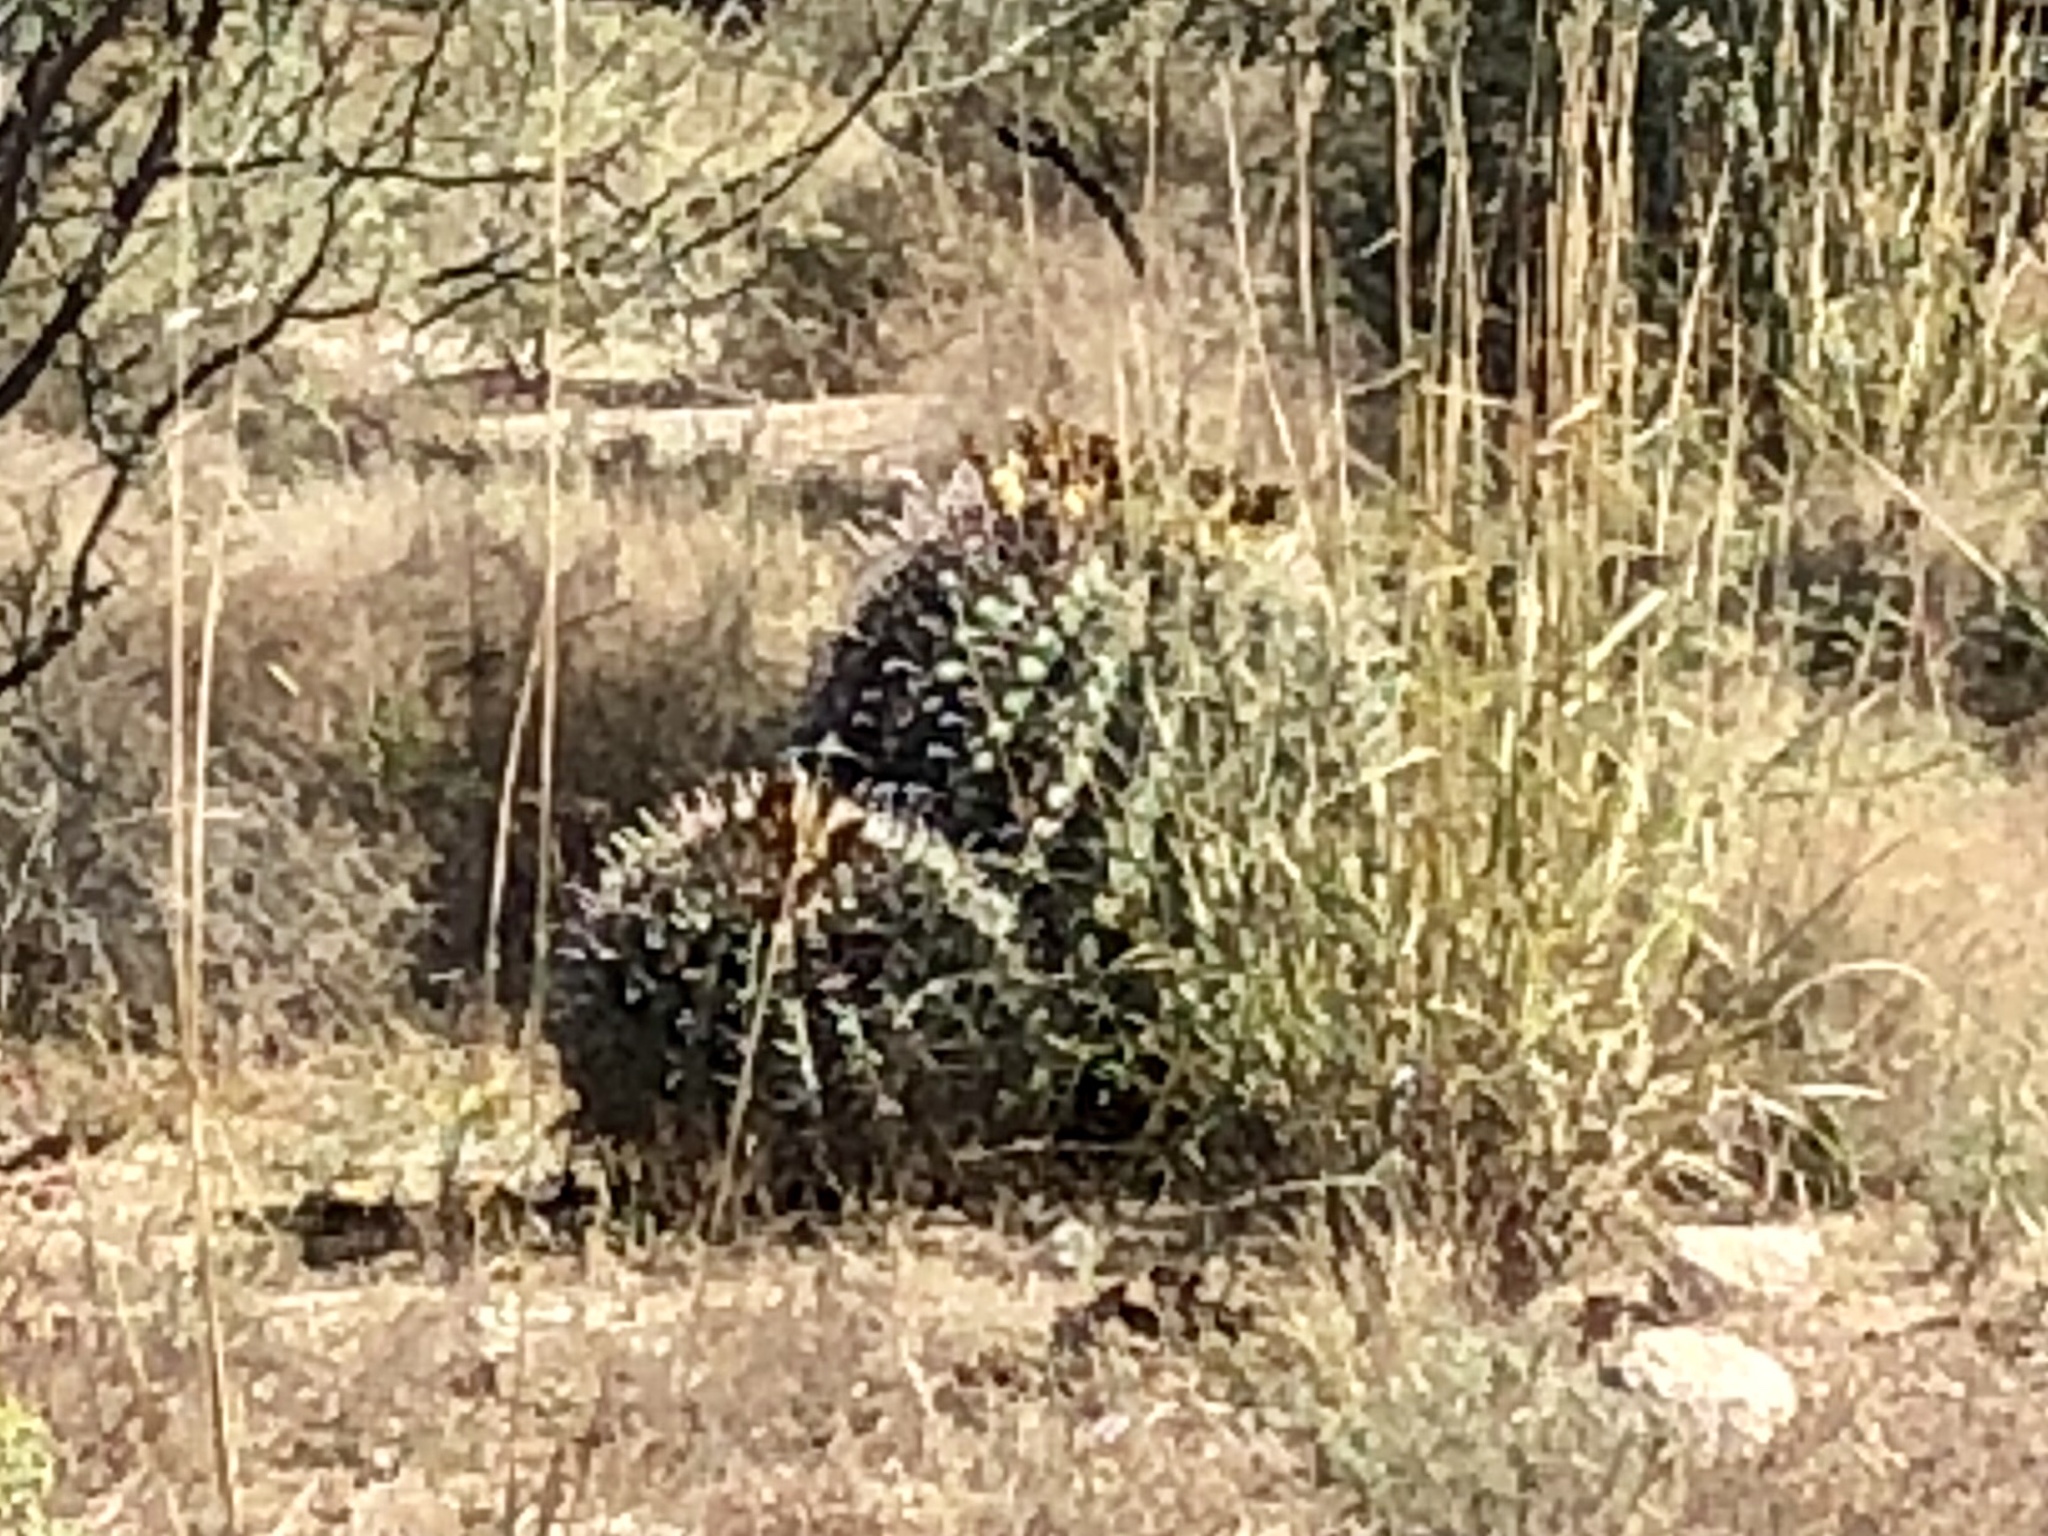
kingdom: Plantae
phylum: Tracheophyta
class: Magnoliopsida
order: Caryophyllales
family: Cactaceae
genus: Ferocactus
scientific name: Ferocactus wislizeni
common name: Candy barrel cactus
